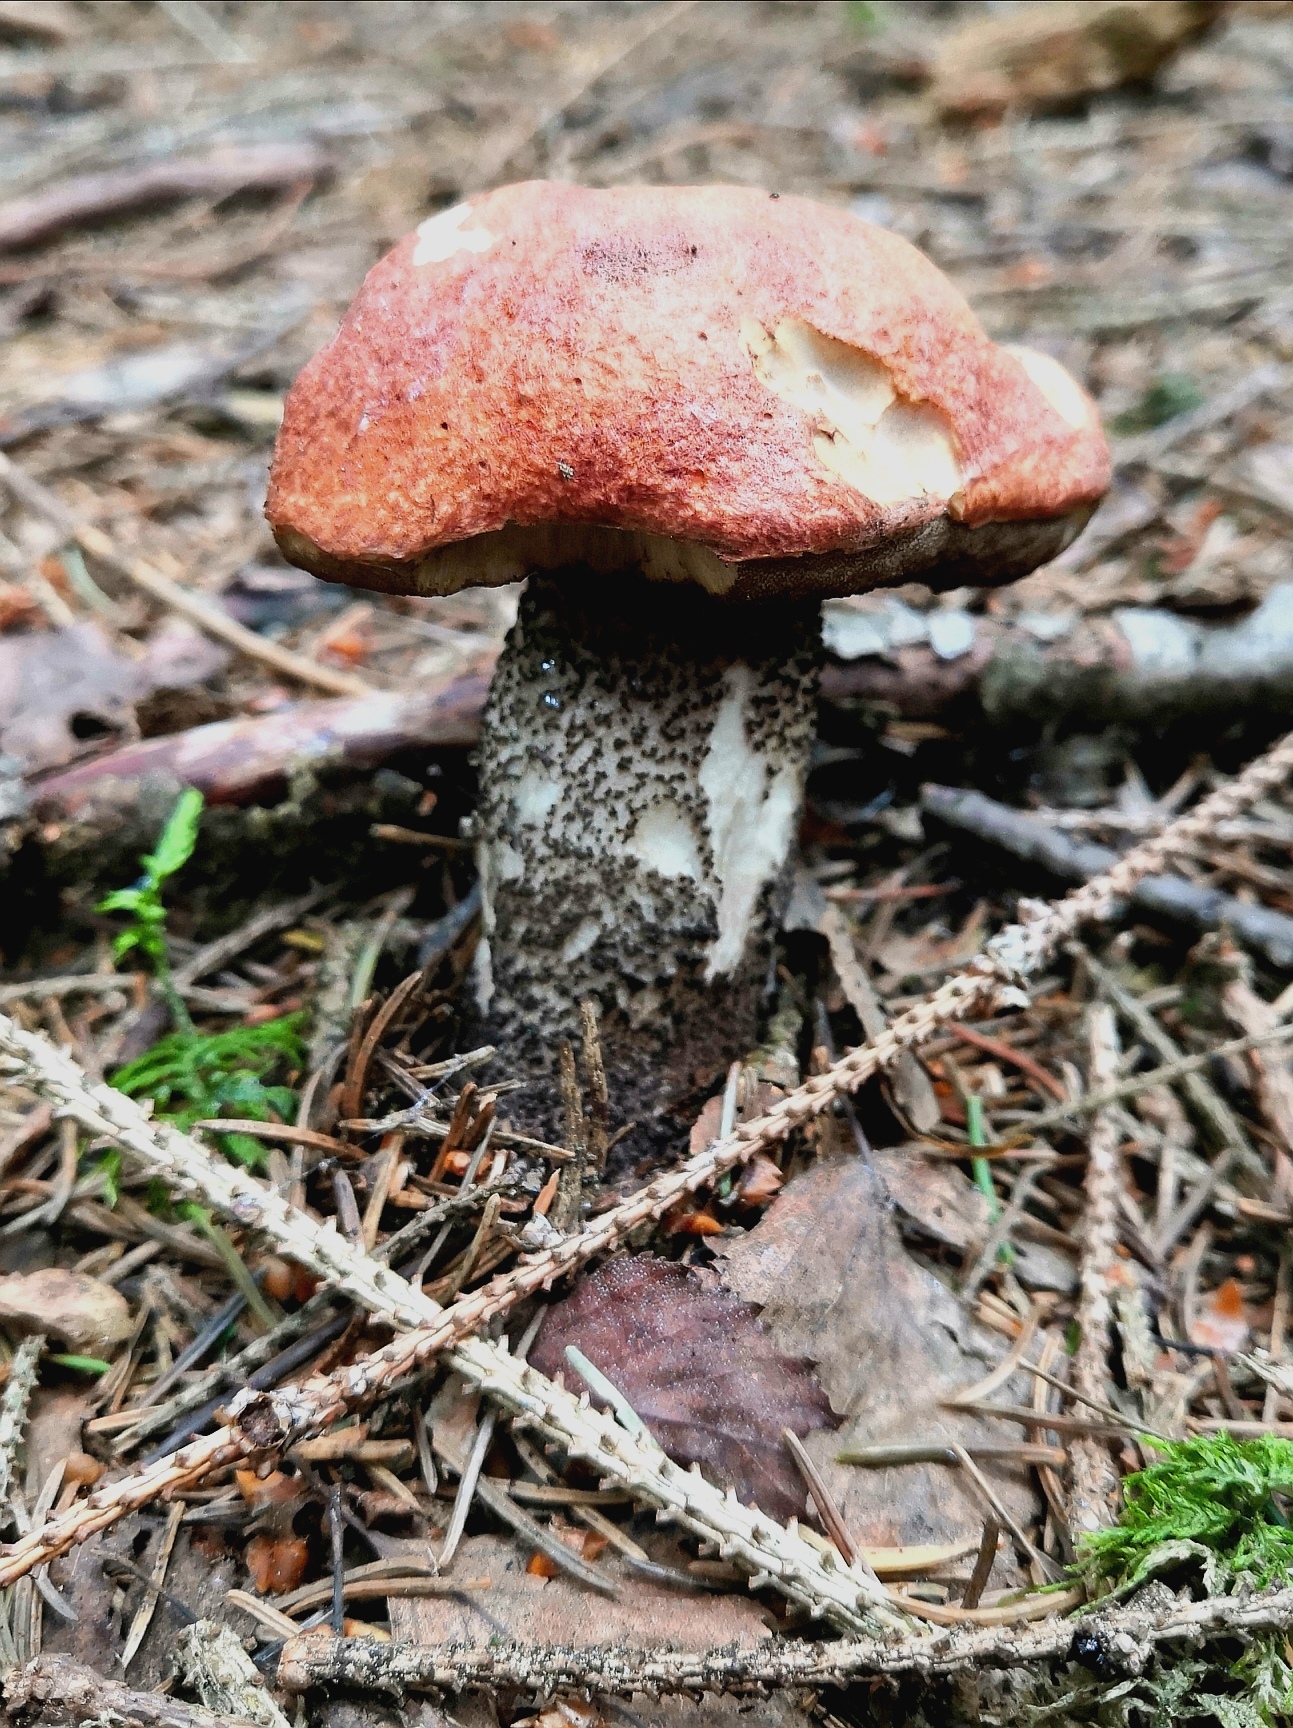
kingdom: Fungi
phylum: Basidiomycota
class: Agaricomycetes
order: Boletales
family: Boletaceae
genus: Leccinum
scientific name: Leccinum aurantiacum
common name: Orange bolete
